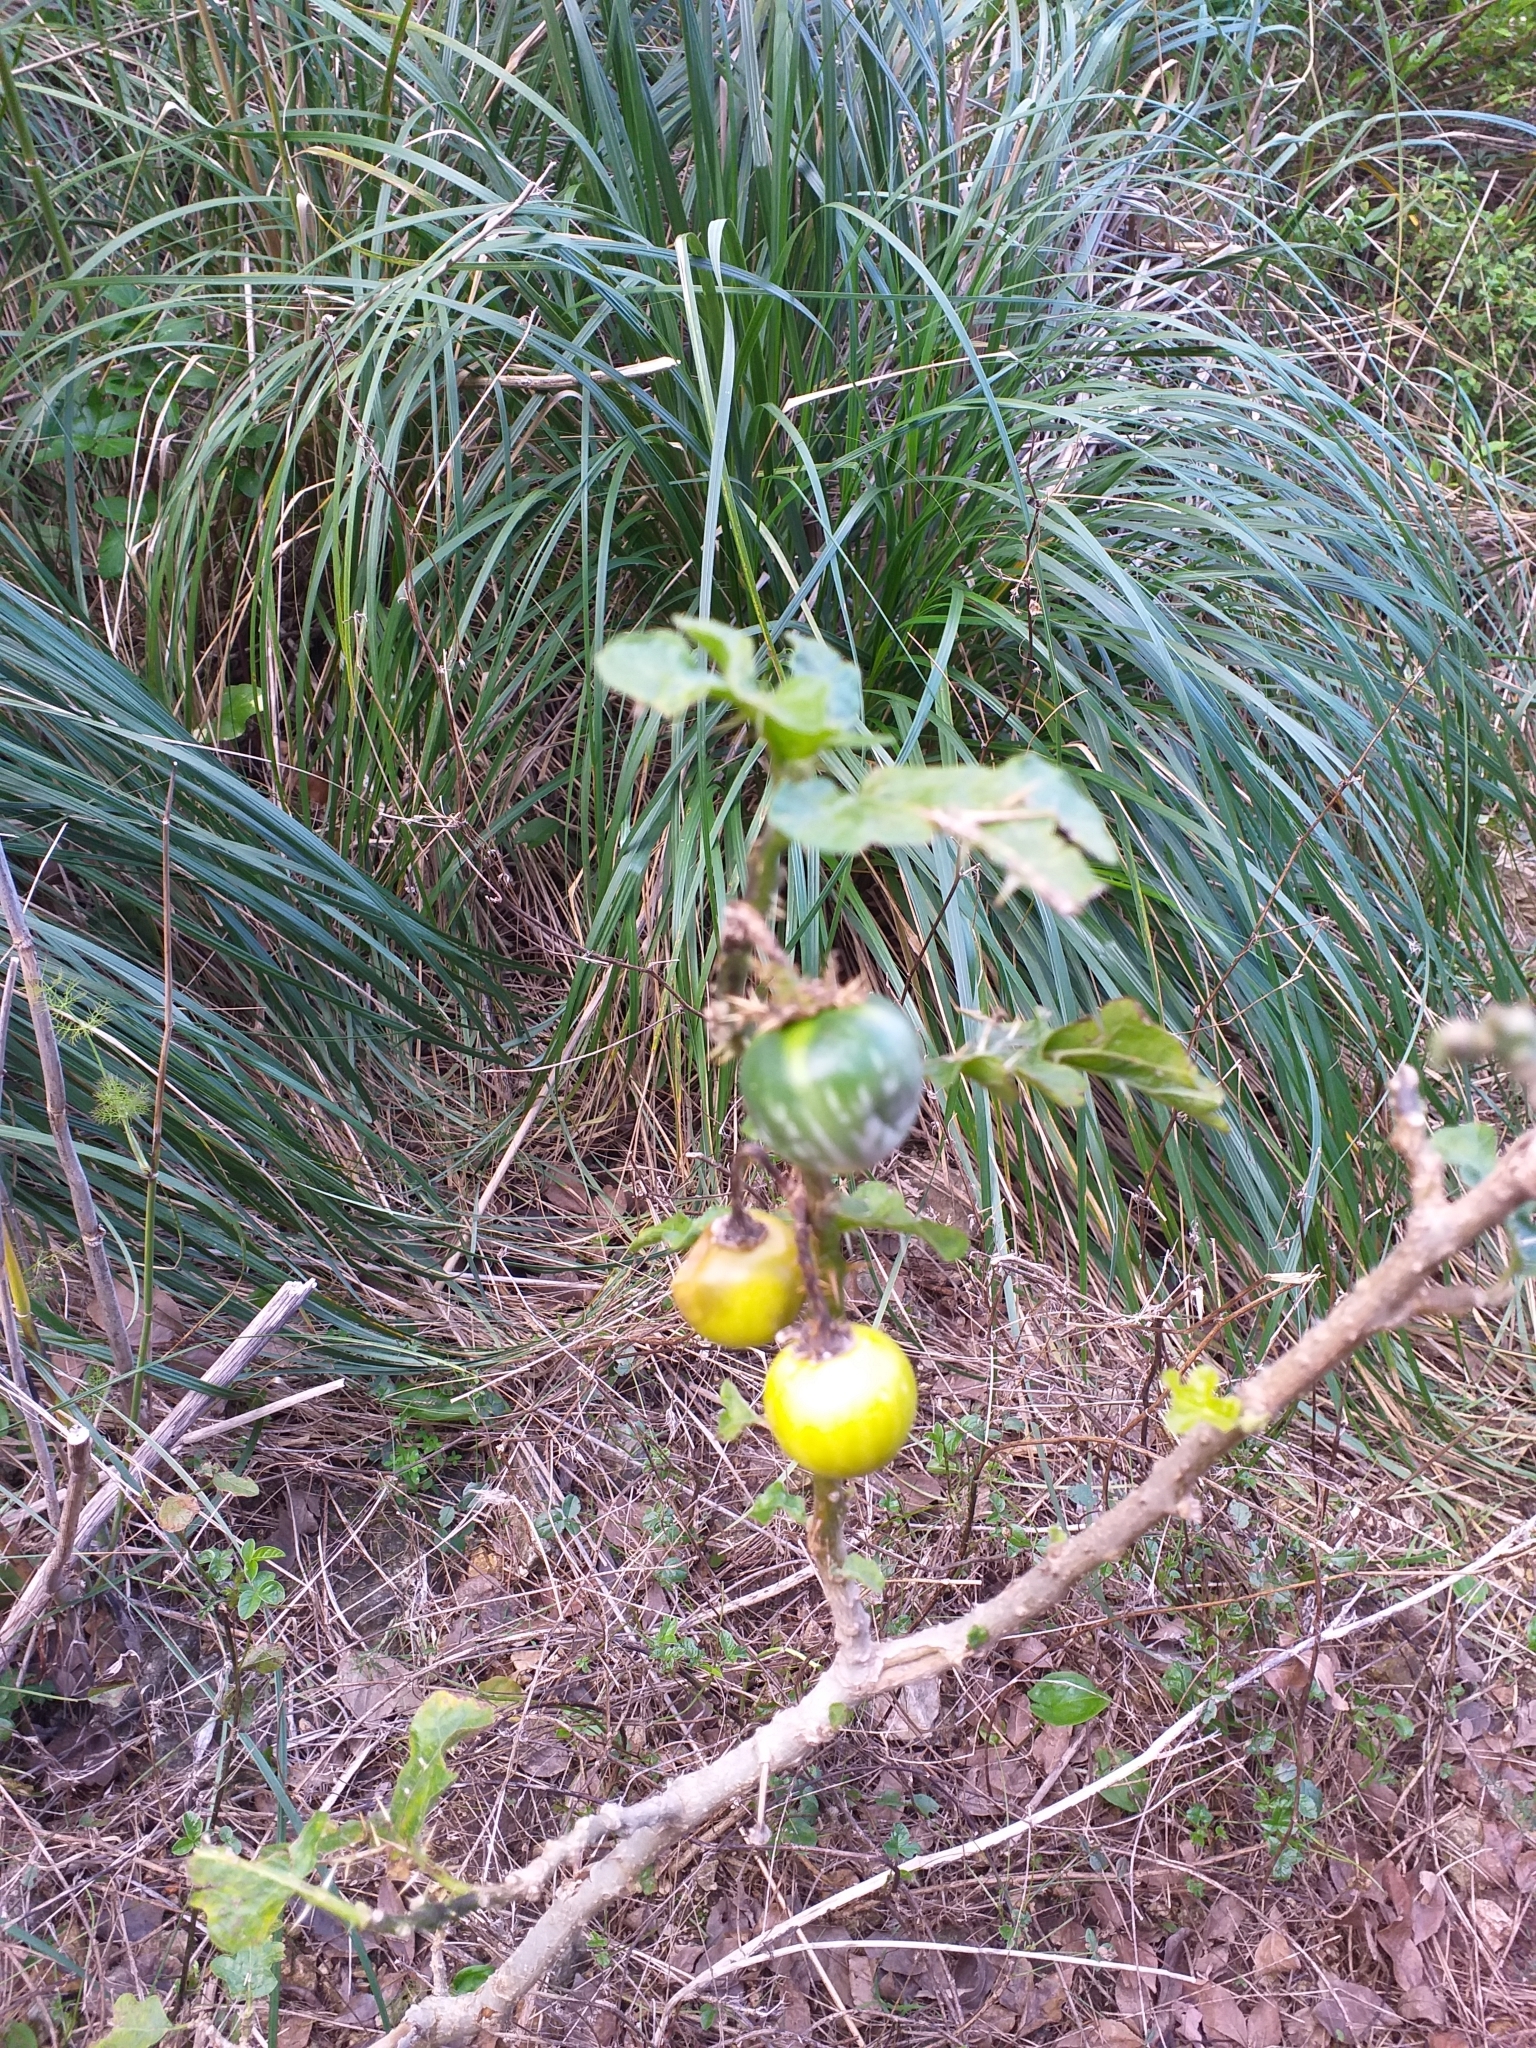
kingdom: Plantae
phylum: Tracheophyta
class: Magnoliopsida
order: Solanales
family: Solanaceae
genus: Solanum
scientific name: Solanum linnaeanum
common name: Nightshade
